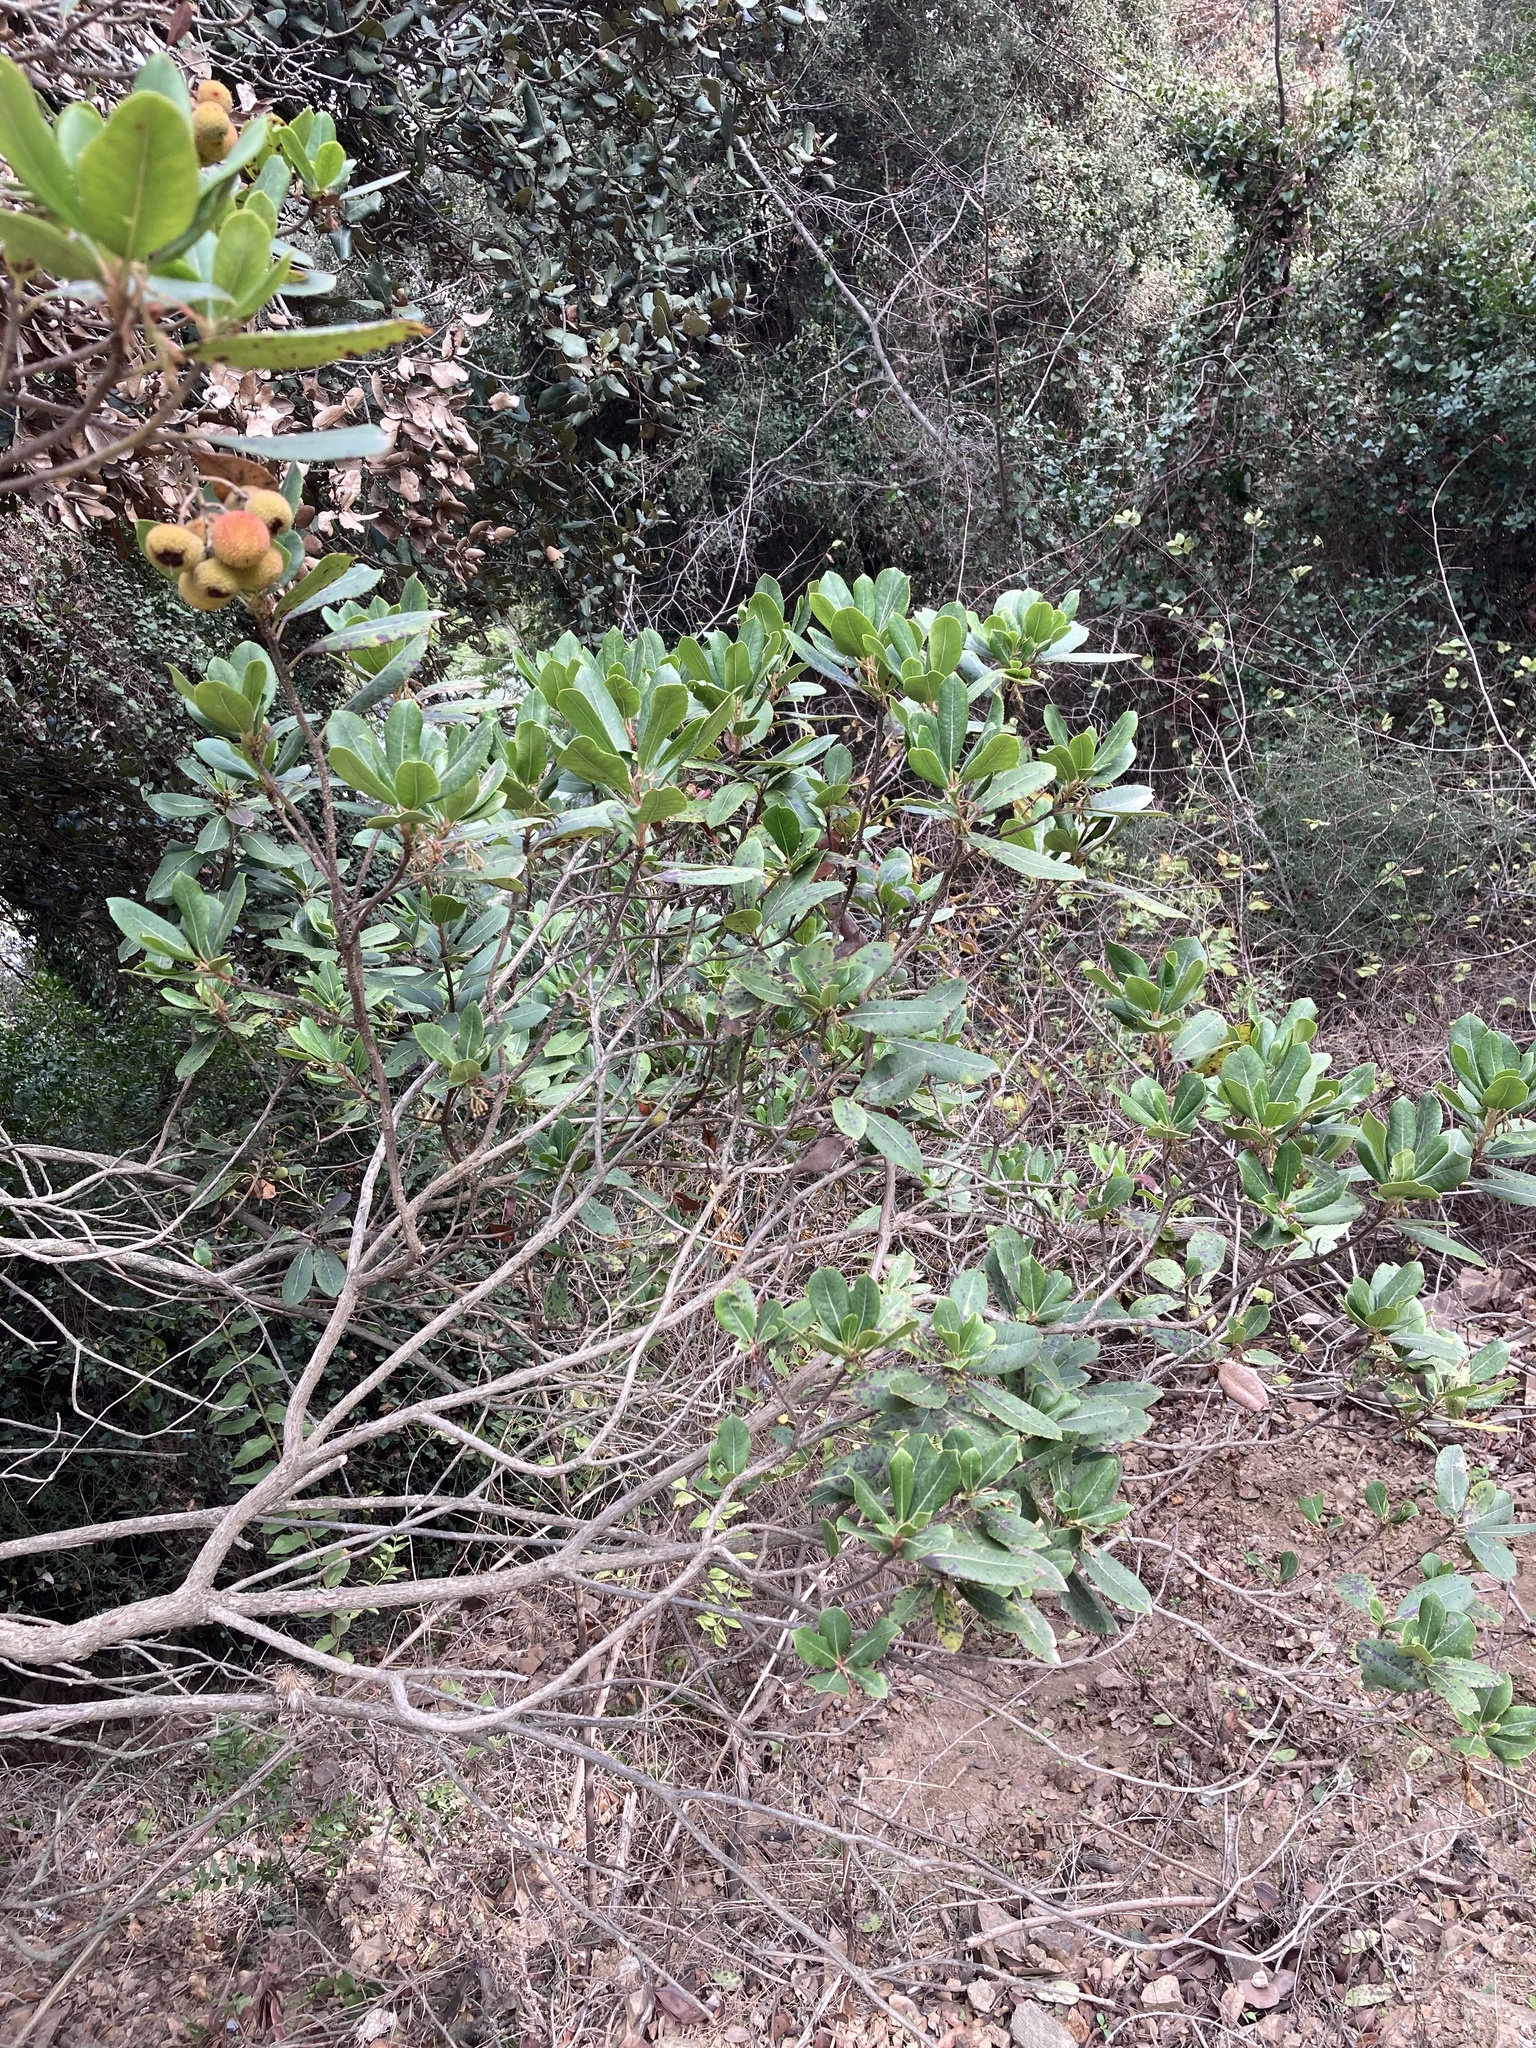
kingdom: Plantae
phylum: Tracheophyta
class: Magnoliopsida
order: Ericales
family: Ericaceae
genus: Arbutus
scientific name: Arbutus unedo
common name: Strawberry-tree
